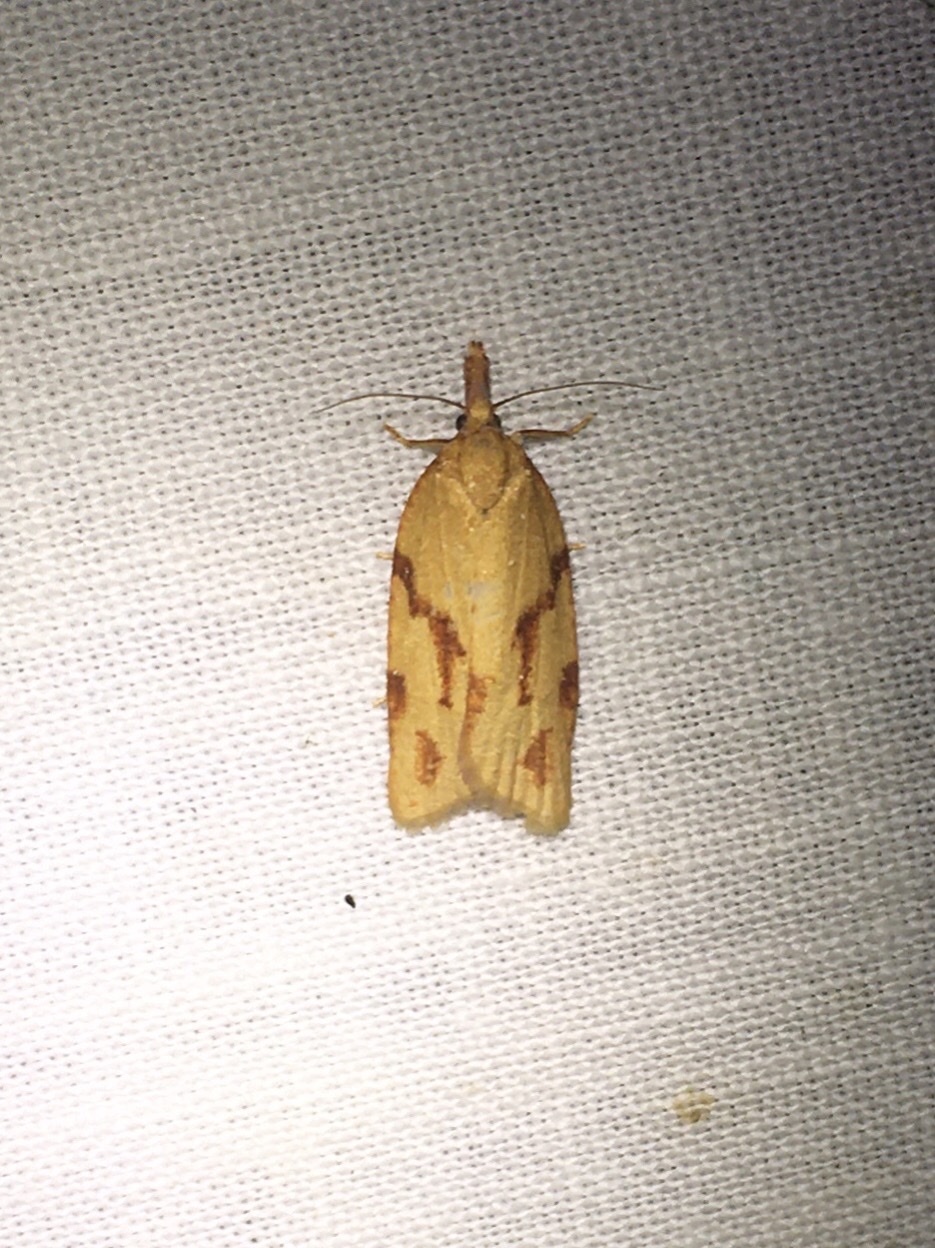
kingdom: Animalia
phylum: Arthropoda
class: Insecta
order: Lepidoptera
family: Tortricidae
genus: Sparganothis
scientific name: Sparganothis unifasciana
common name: One-lined sparganothis moth
